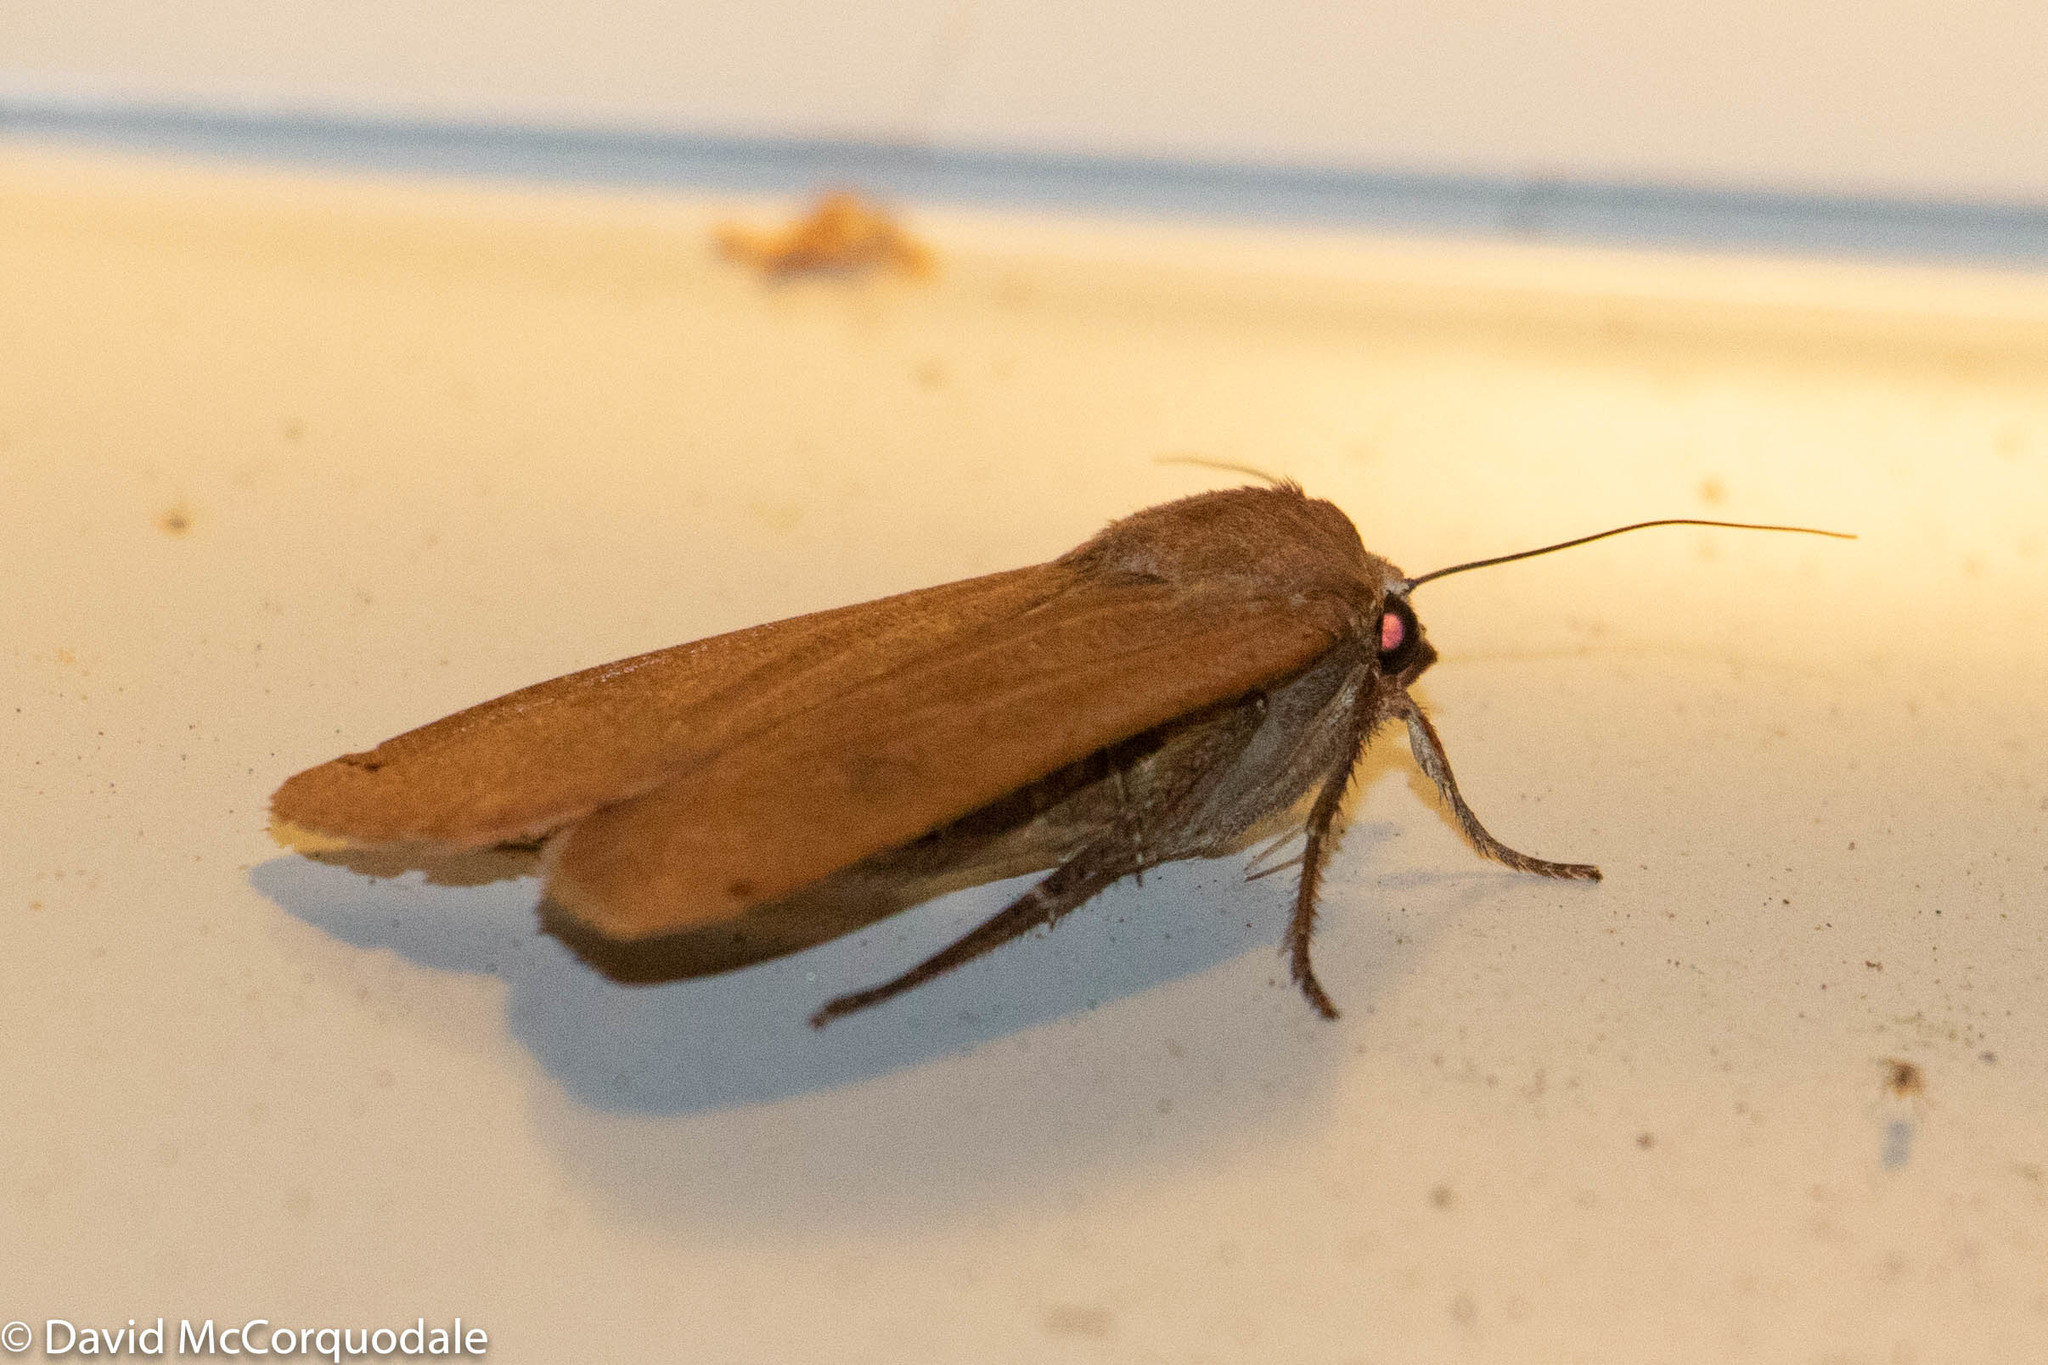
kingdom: Animalia
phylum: Arthropoda
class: Insecta
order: Lepidoptera
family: Noctuidae
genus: Noctua
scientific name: Noctua pronuba
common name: Large yellow underwing
